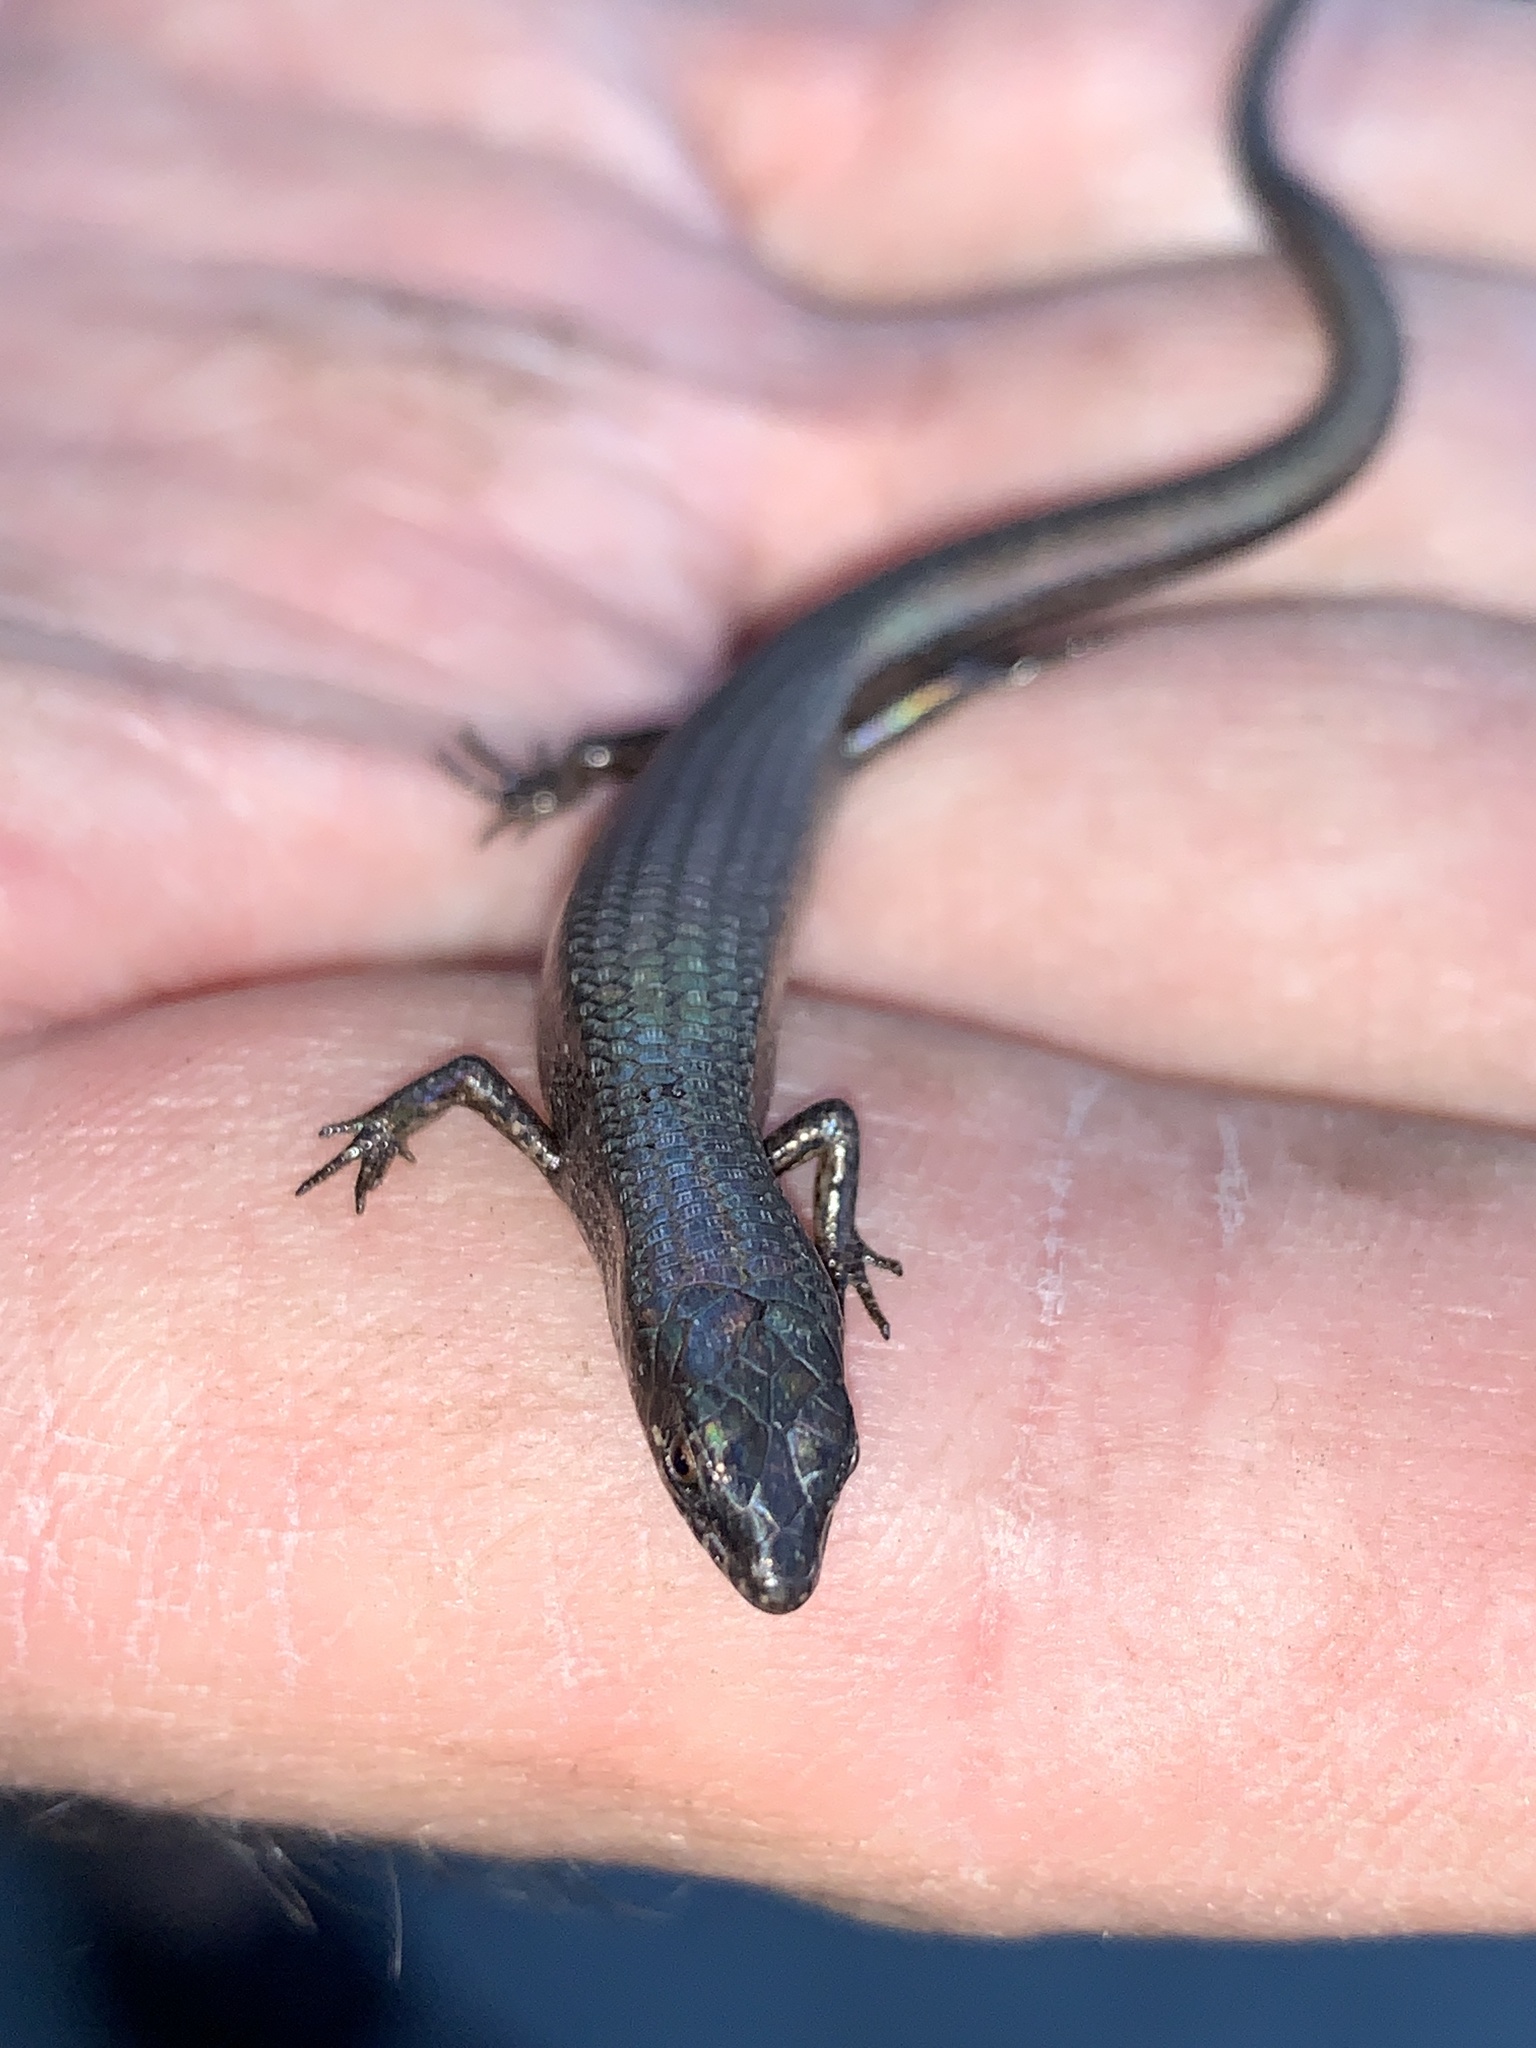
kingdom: Animalia
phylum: Chordata
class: Squamata
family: Scincidae
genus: Saproscincus
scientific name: Saproscincus mustelinus
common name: Southern weasel skink
